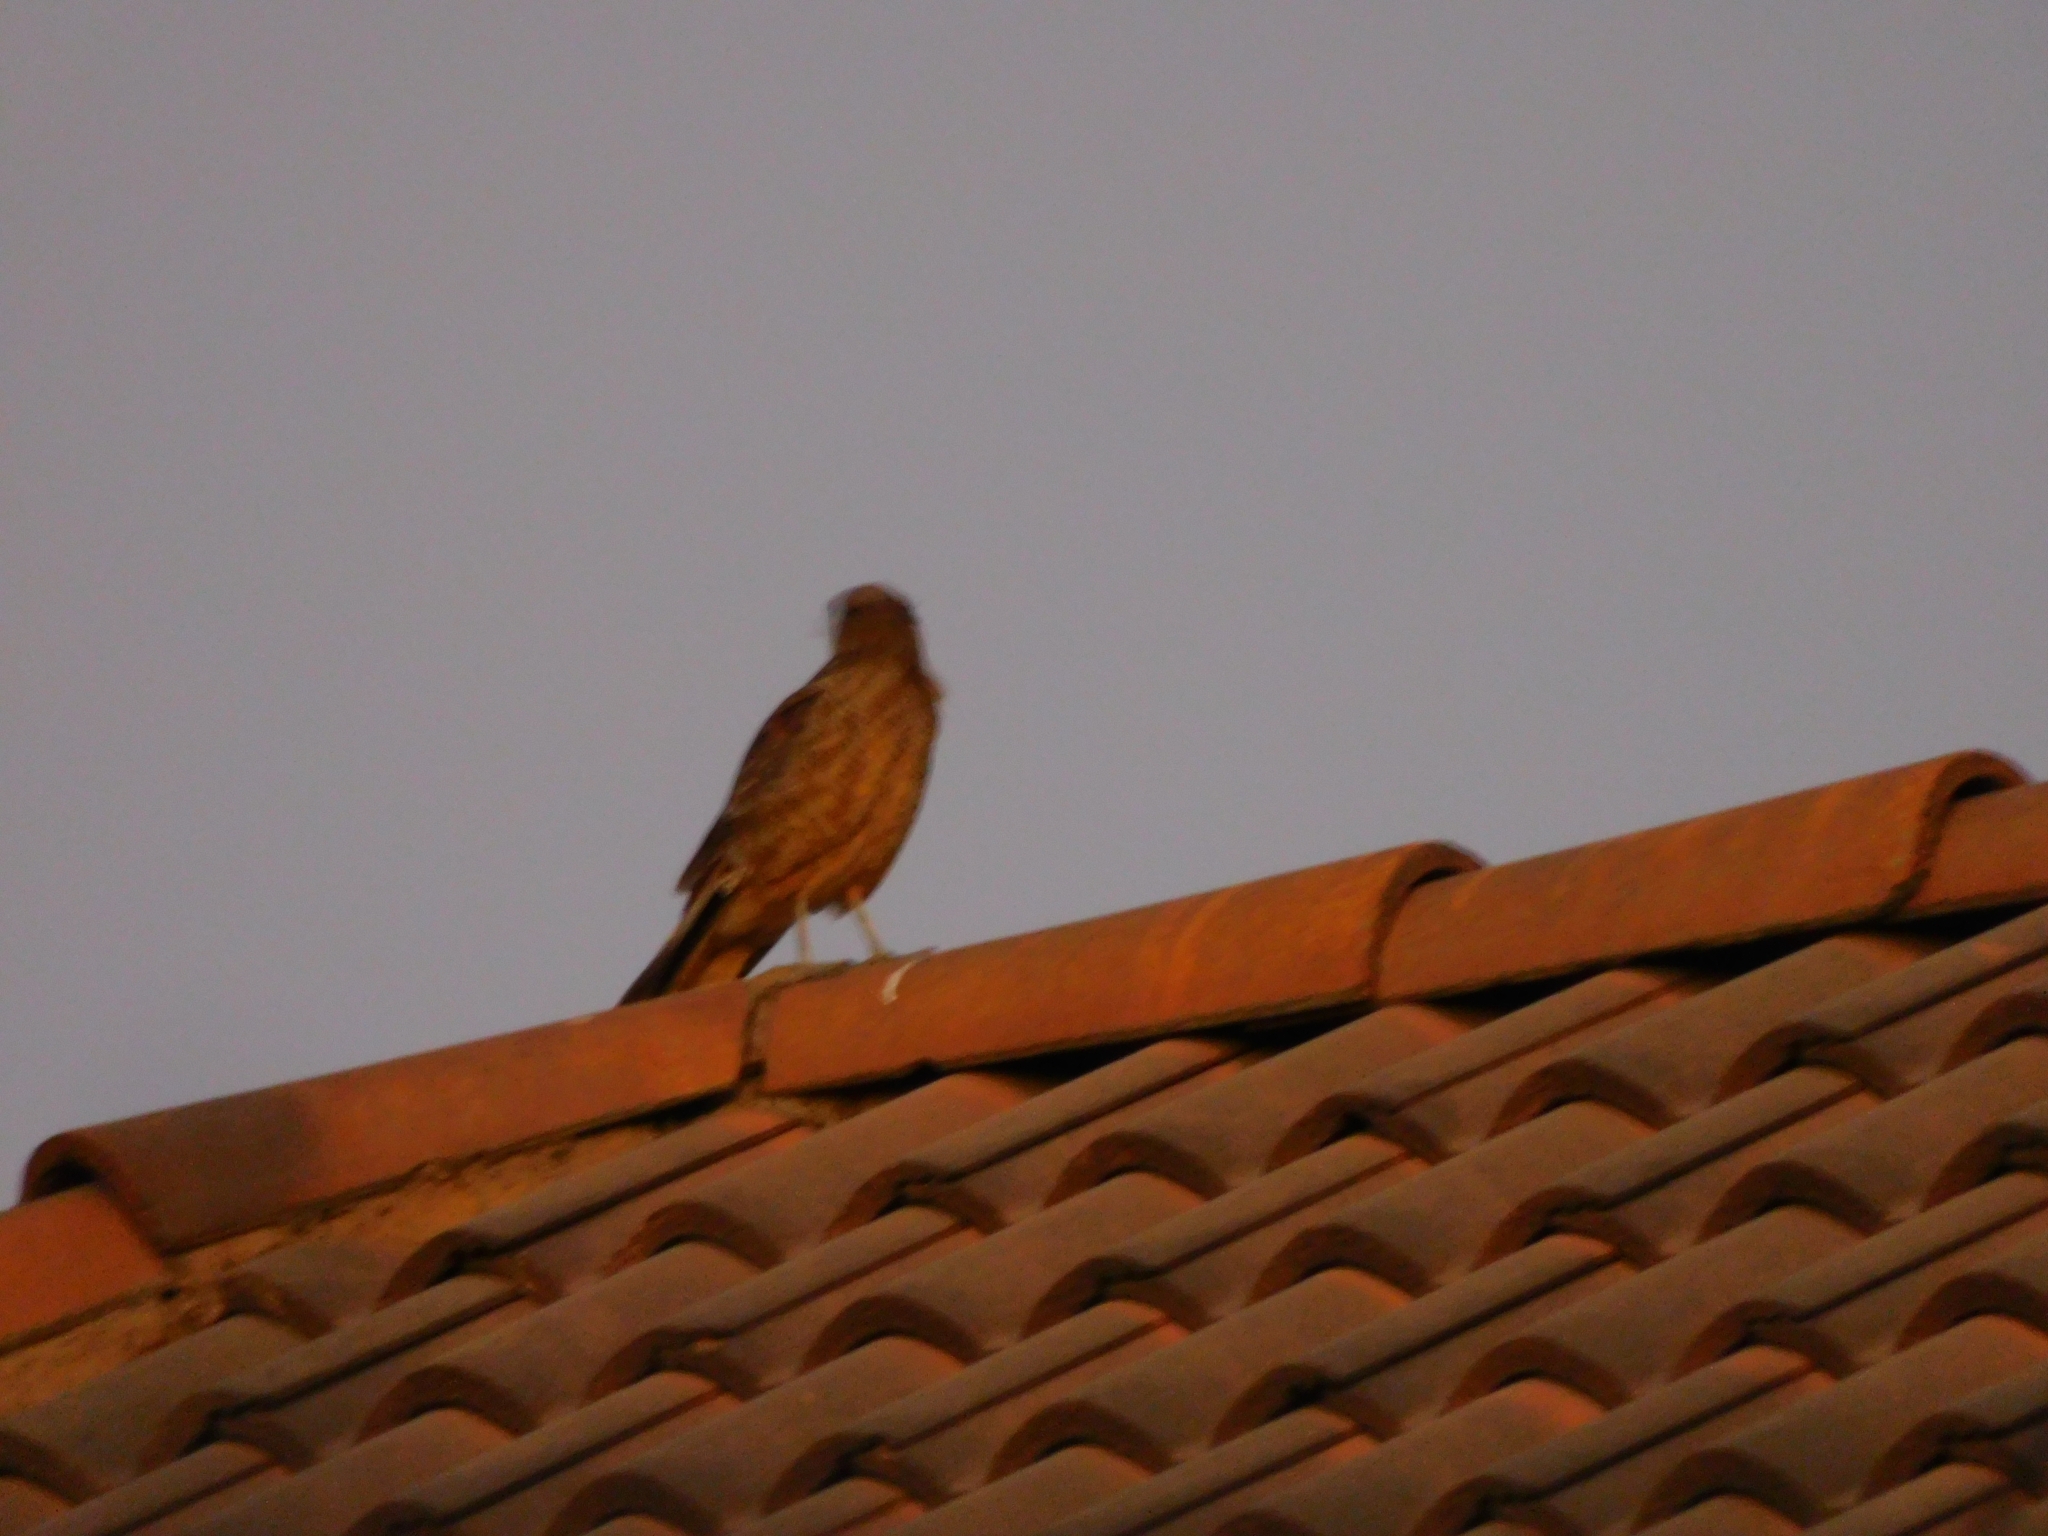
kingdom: Animalia
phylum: Chordata
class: Aves
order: Falconiformes
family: Falconidae
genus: Daptrius
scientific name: Daptrius
